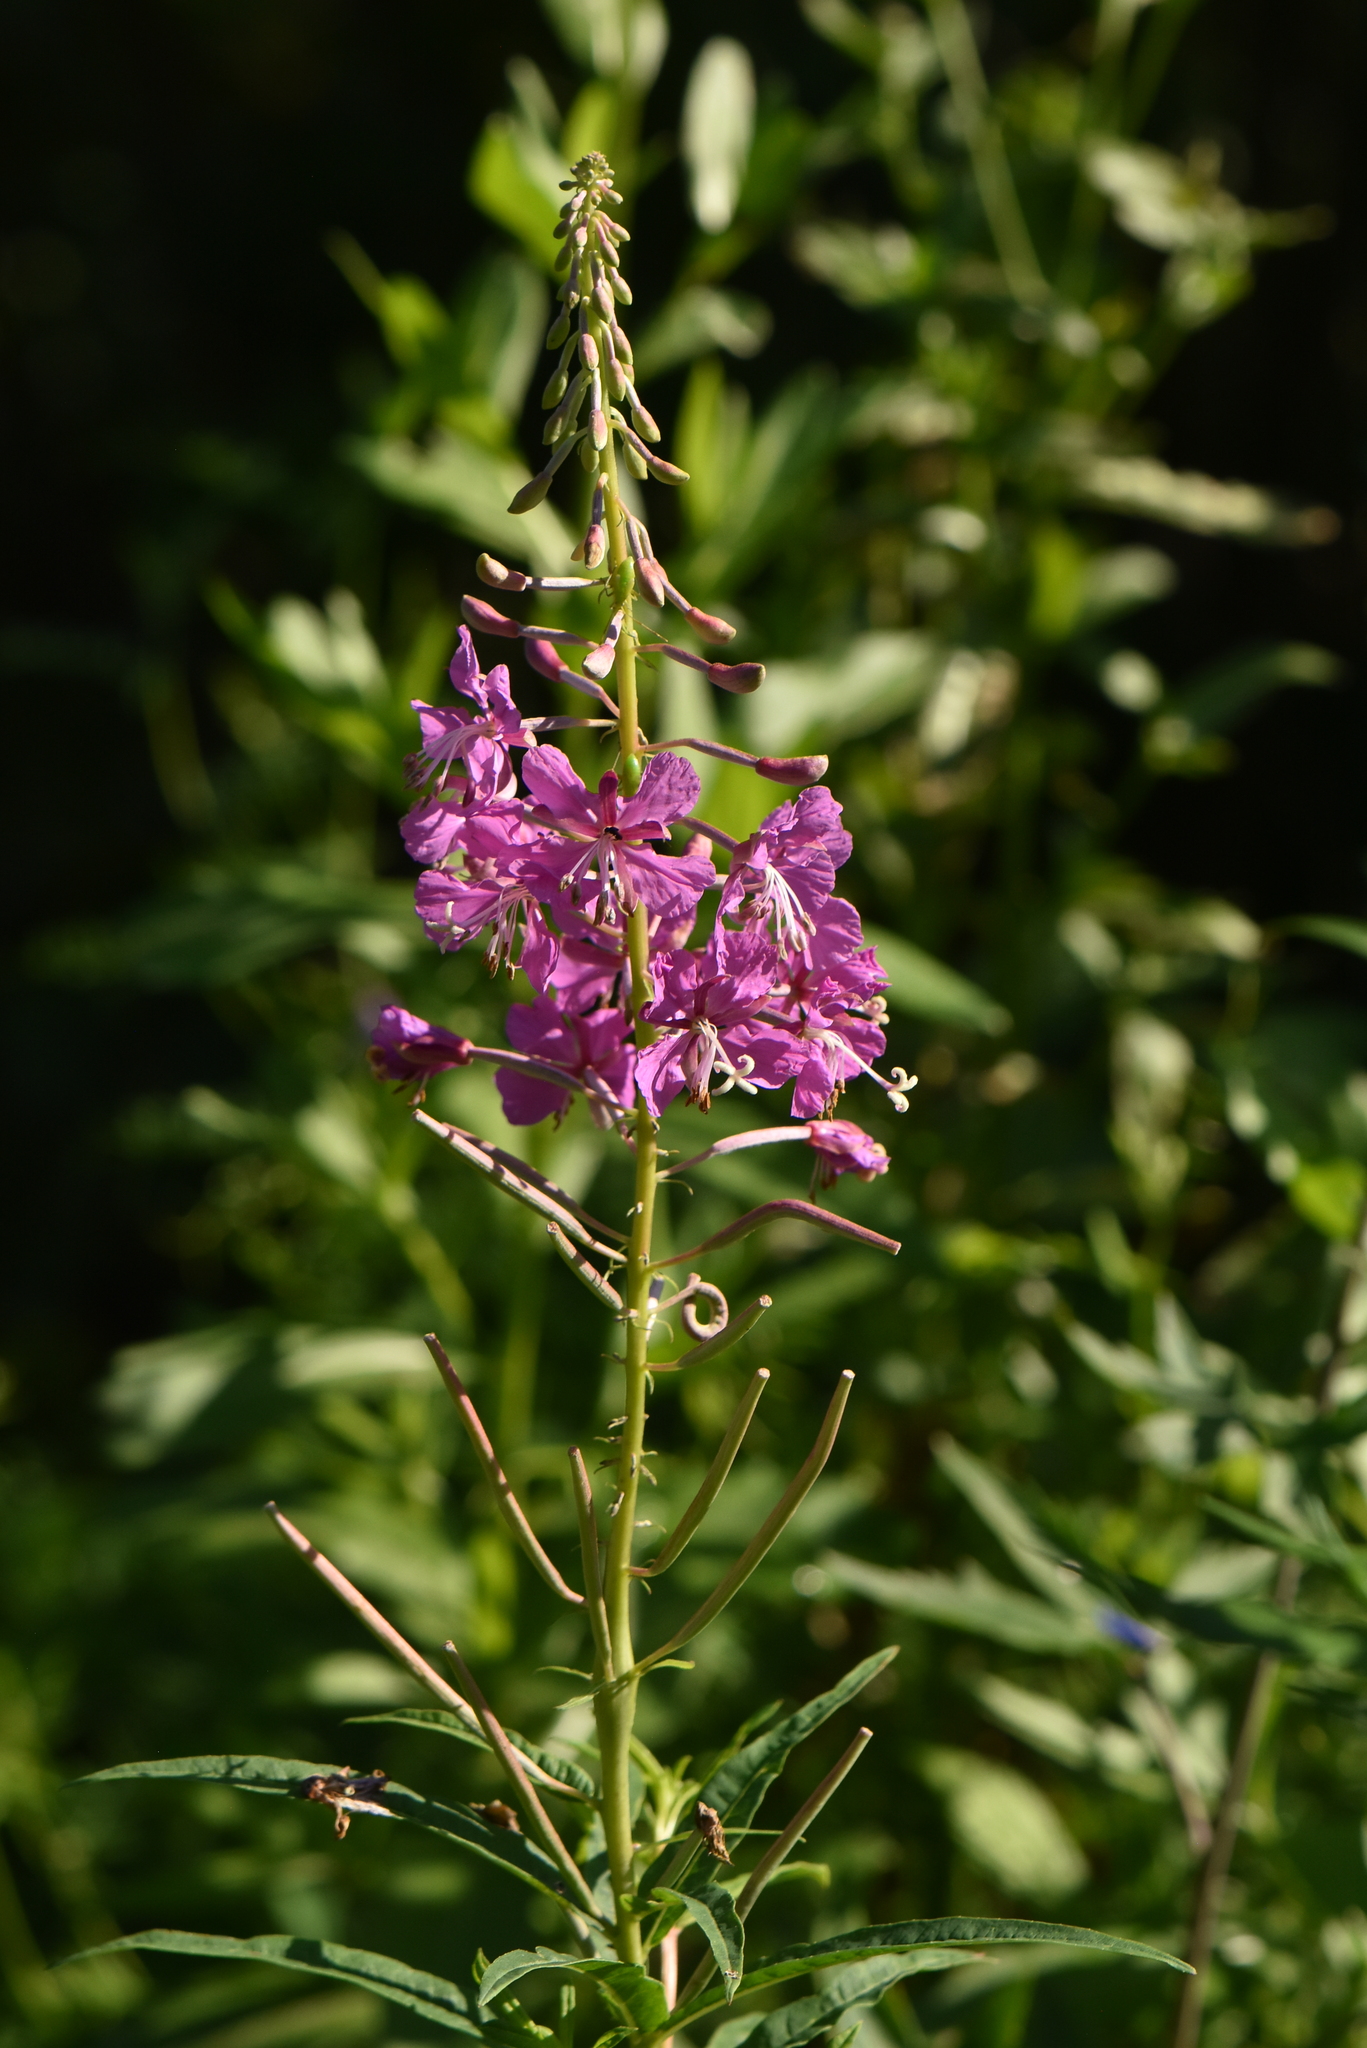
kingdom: Plantae
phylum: Tracheophyta
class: Magnoliopsida
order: Myrtales
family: Onagraceae
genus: Chamaenerion
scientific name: Chamaenerion angustifolium
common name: Fireweed
